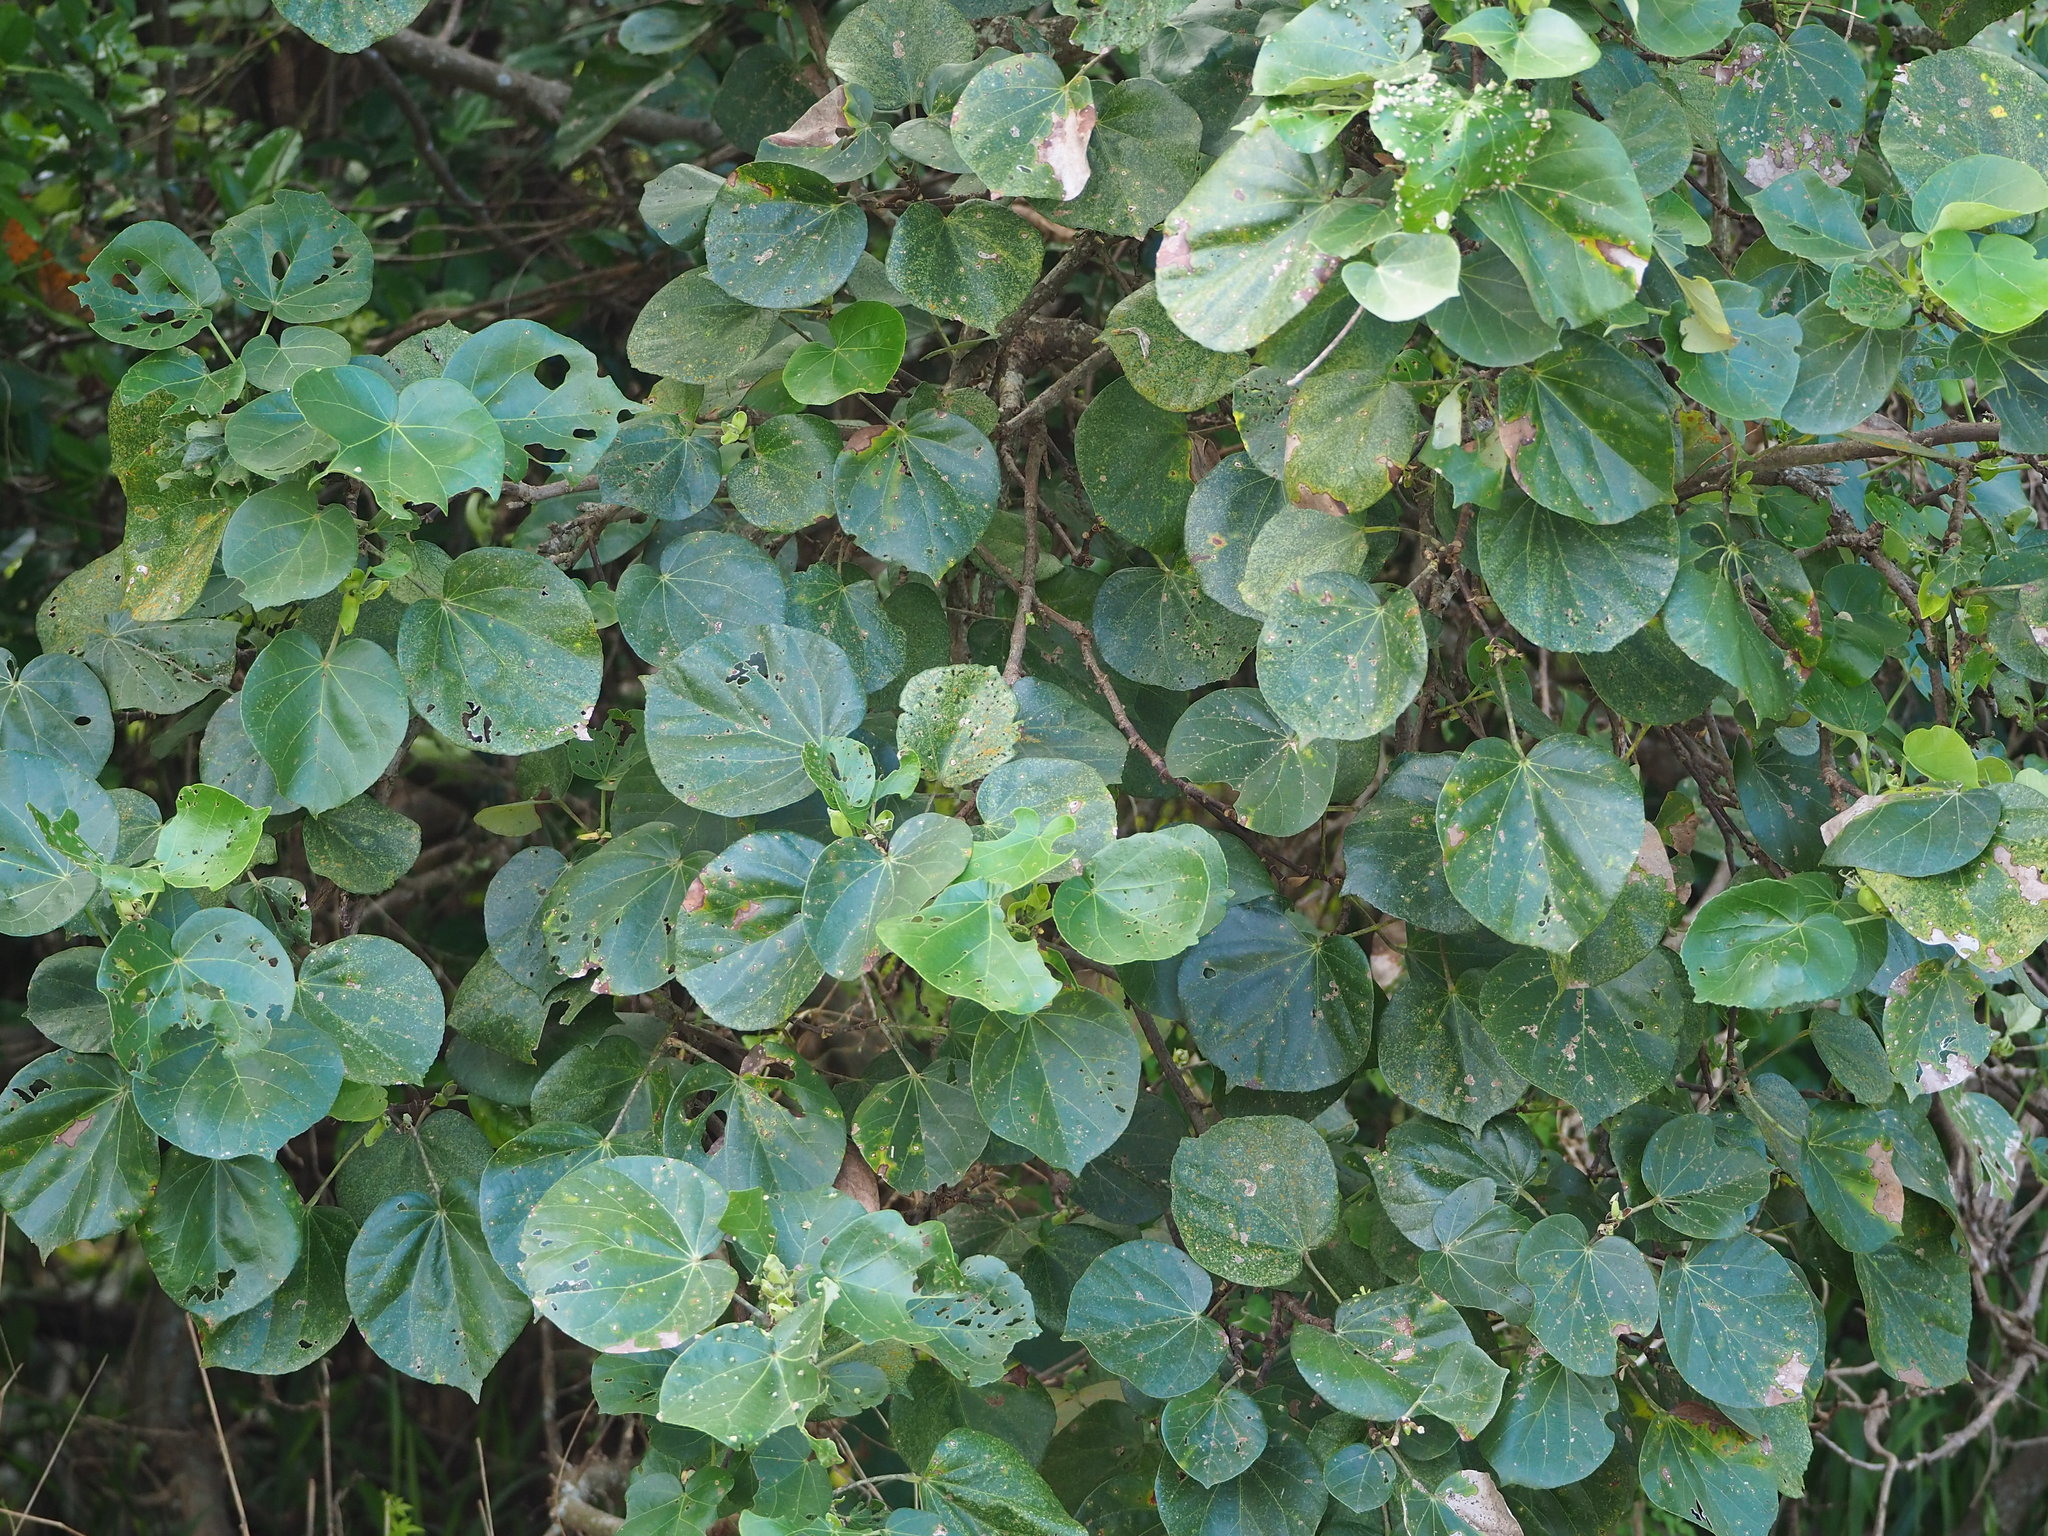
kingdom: Plantae
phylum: Tracheophyta
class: Magnoliopsida
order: Malvales
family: Malvaceae
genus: Talipariti
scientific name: Talipariti tiliaceum
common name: Sea hibiscus
